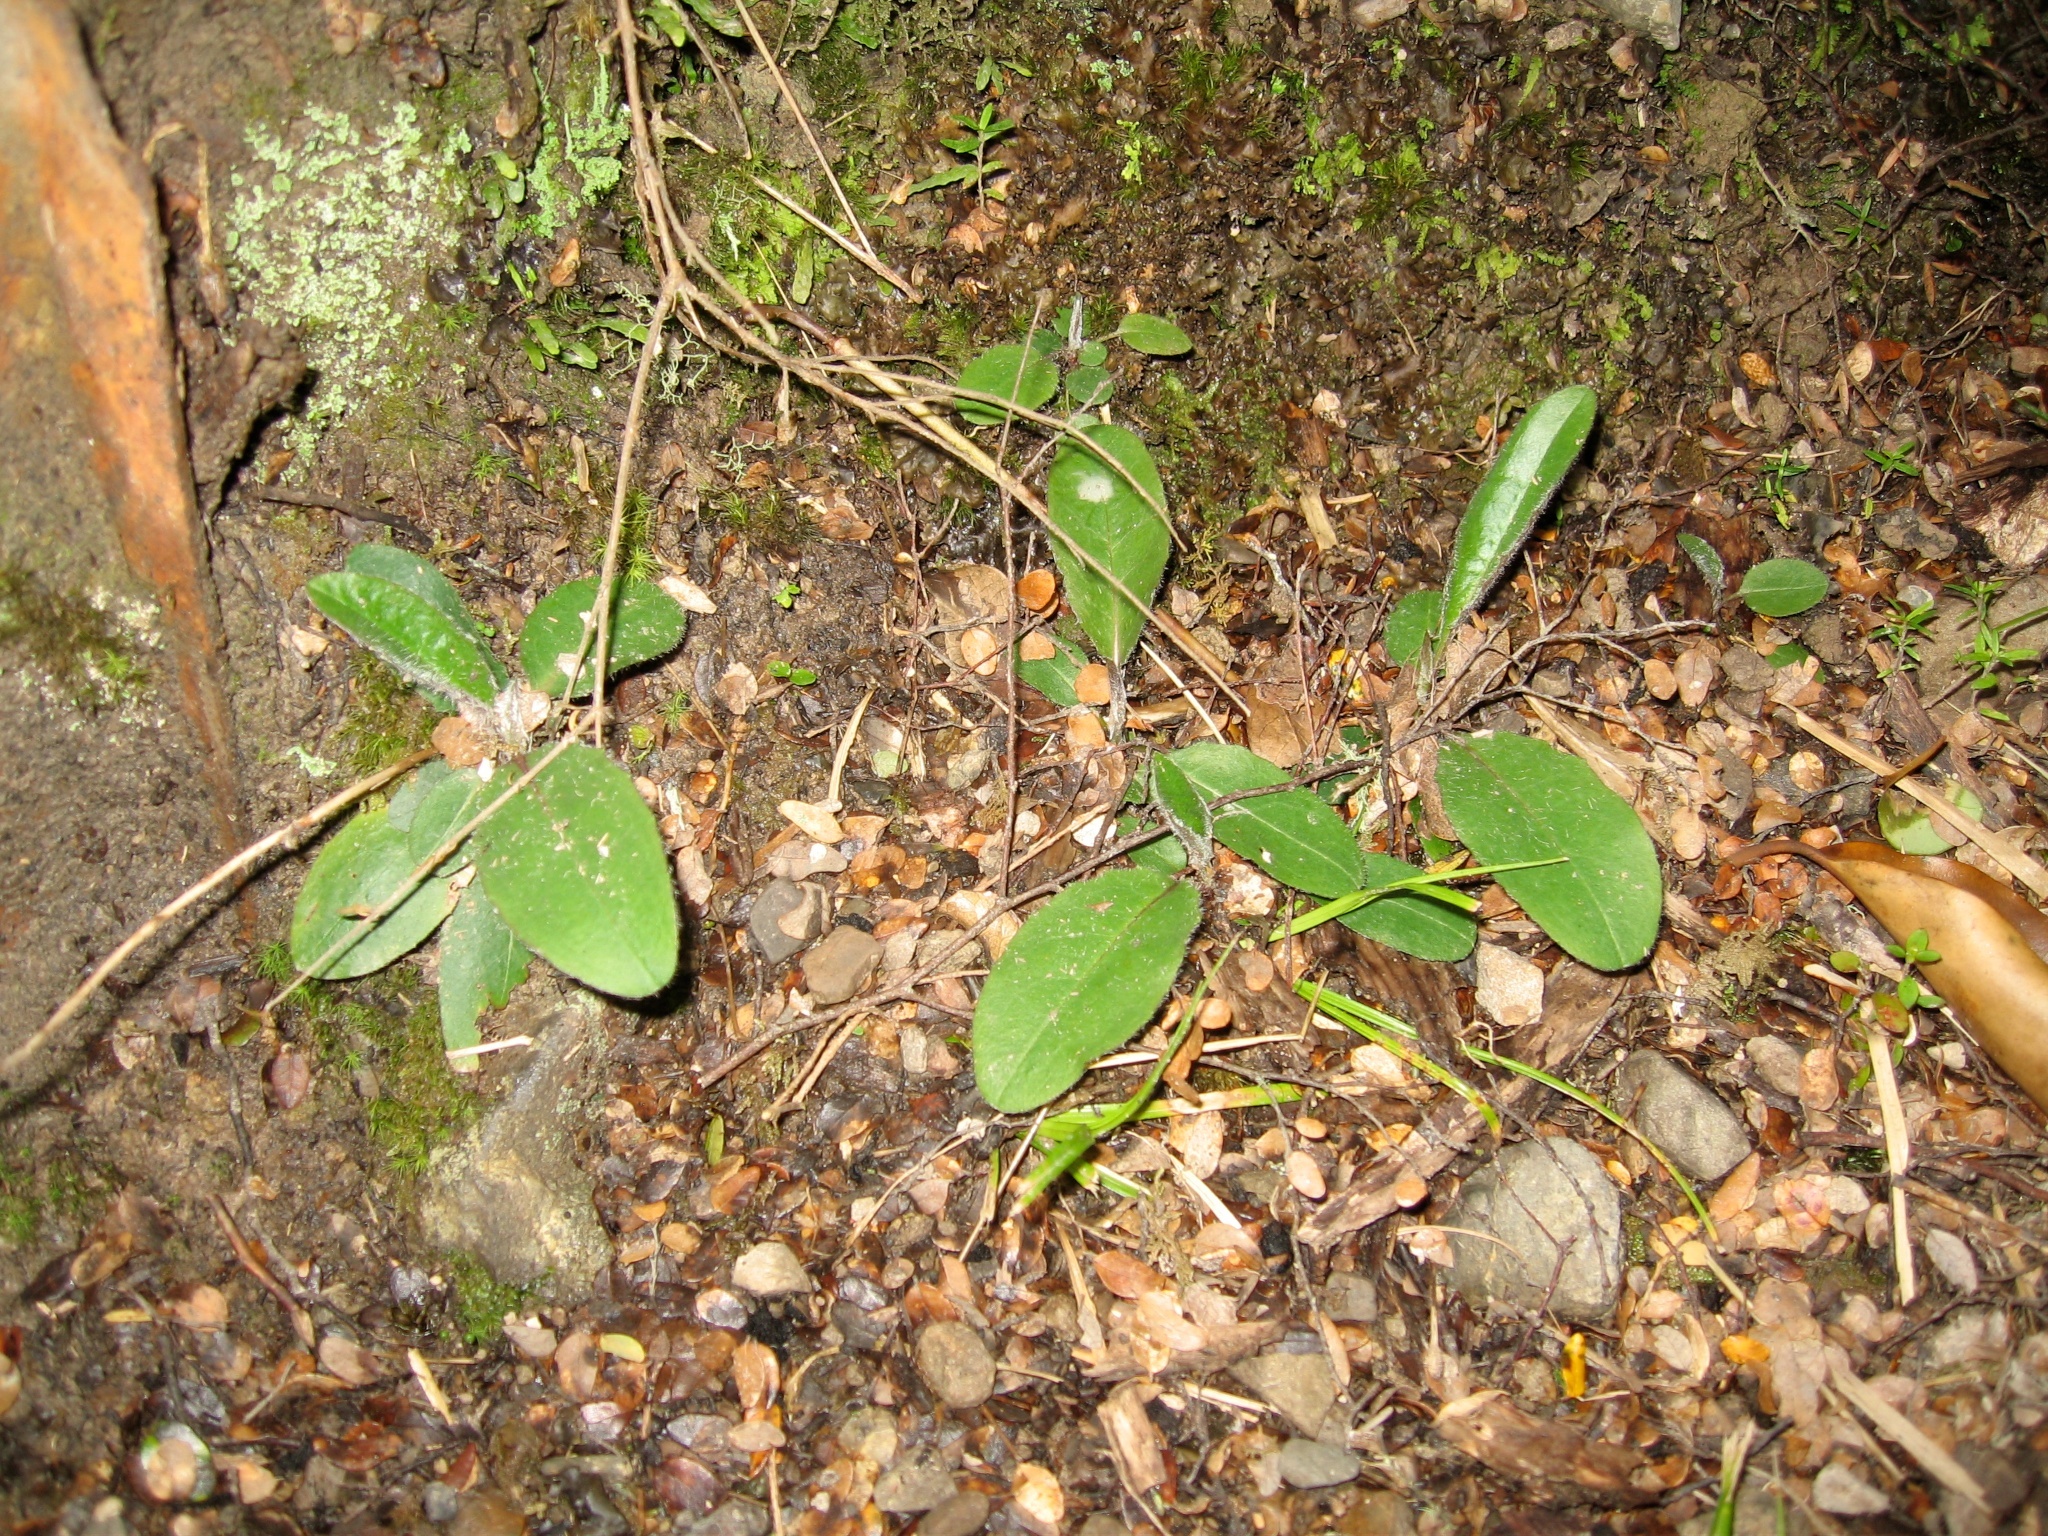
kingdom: Plantae
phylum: Tracheophyta
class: Magnoliopsida
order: Asterales
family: Asteraceae
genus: Hieracium
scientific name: Hieracium lepidulum
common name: Irregular-toothed hawkweed
